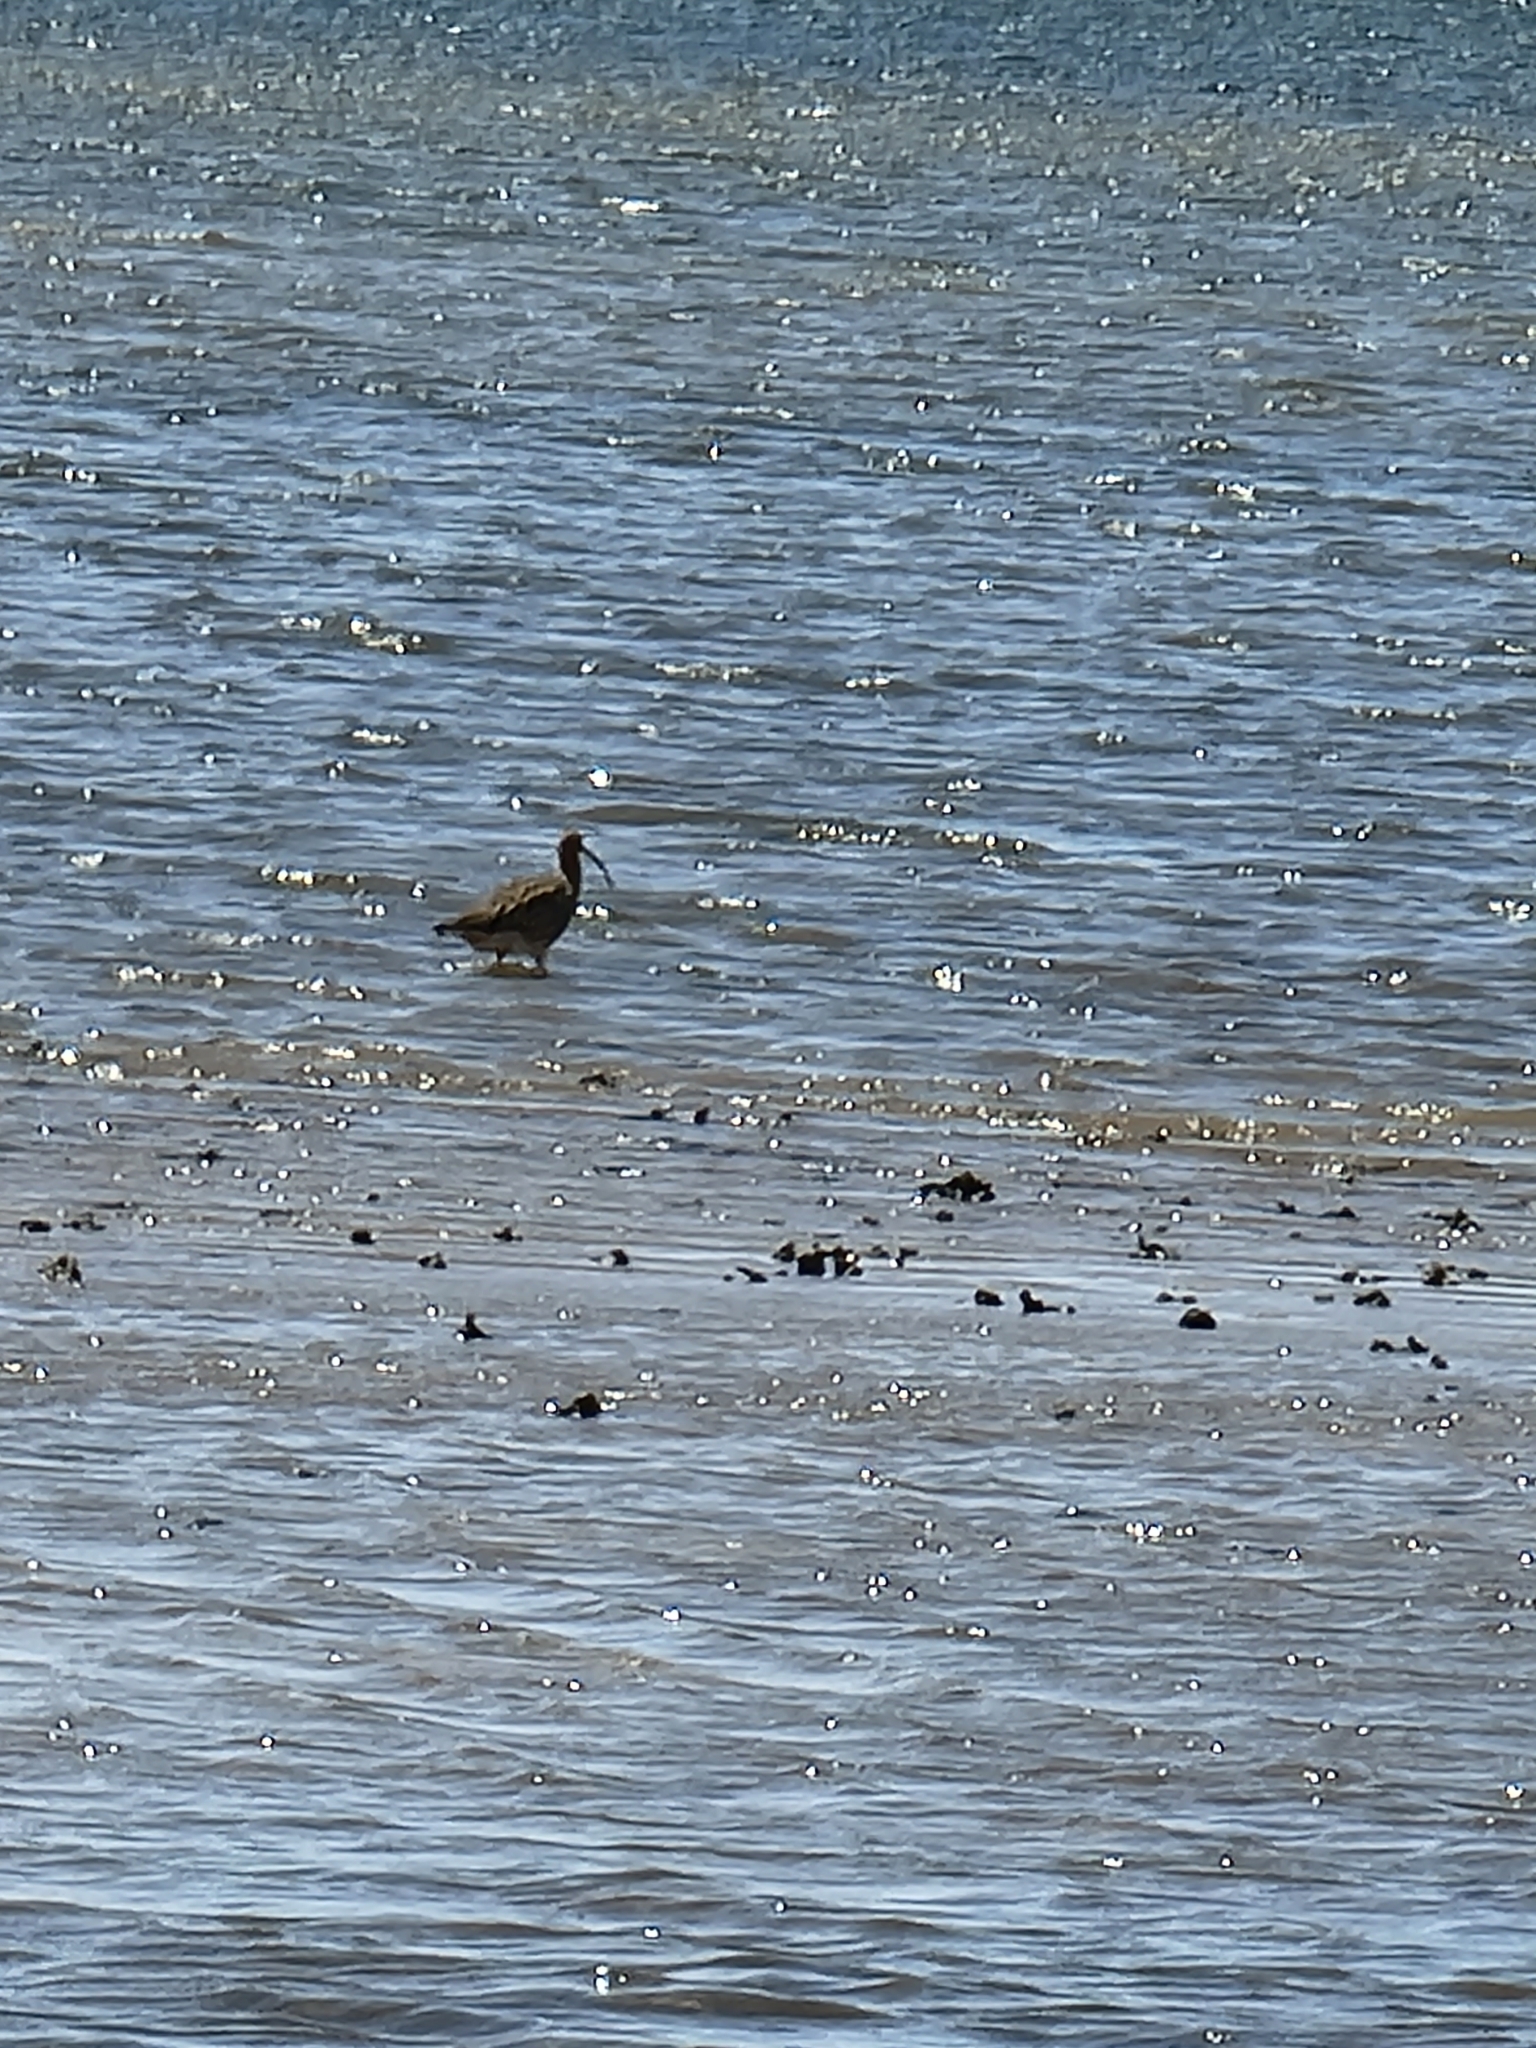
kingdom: Animalia
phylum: Chordata
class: Aves
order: Charadriiformes
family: Scolopacidae
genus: Numenius
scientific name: Numenius madagascariensis
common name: Far eastern curlew
